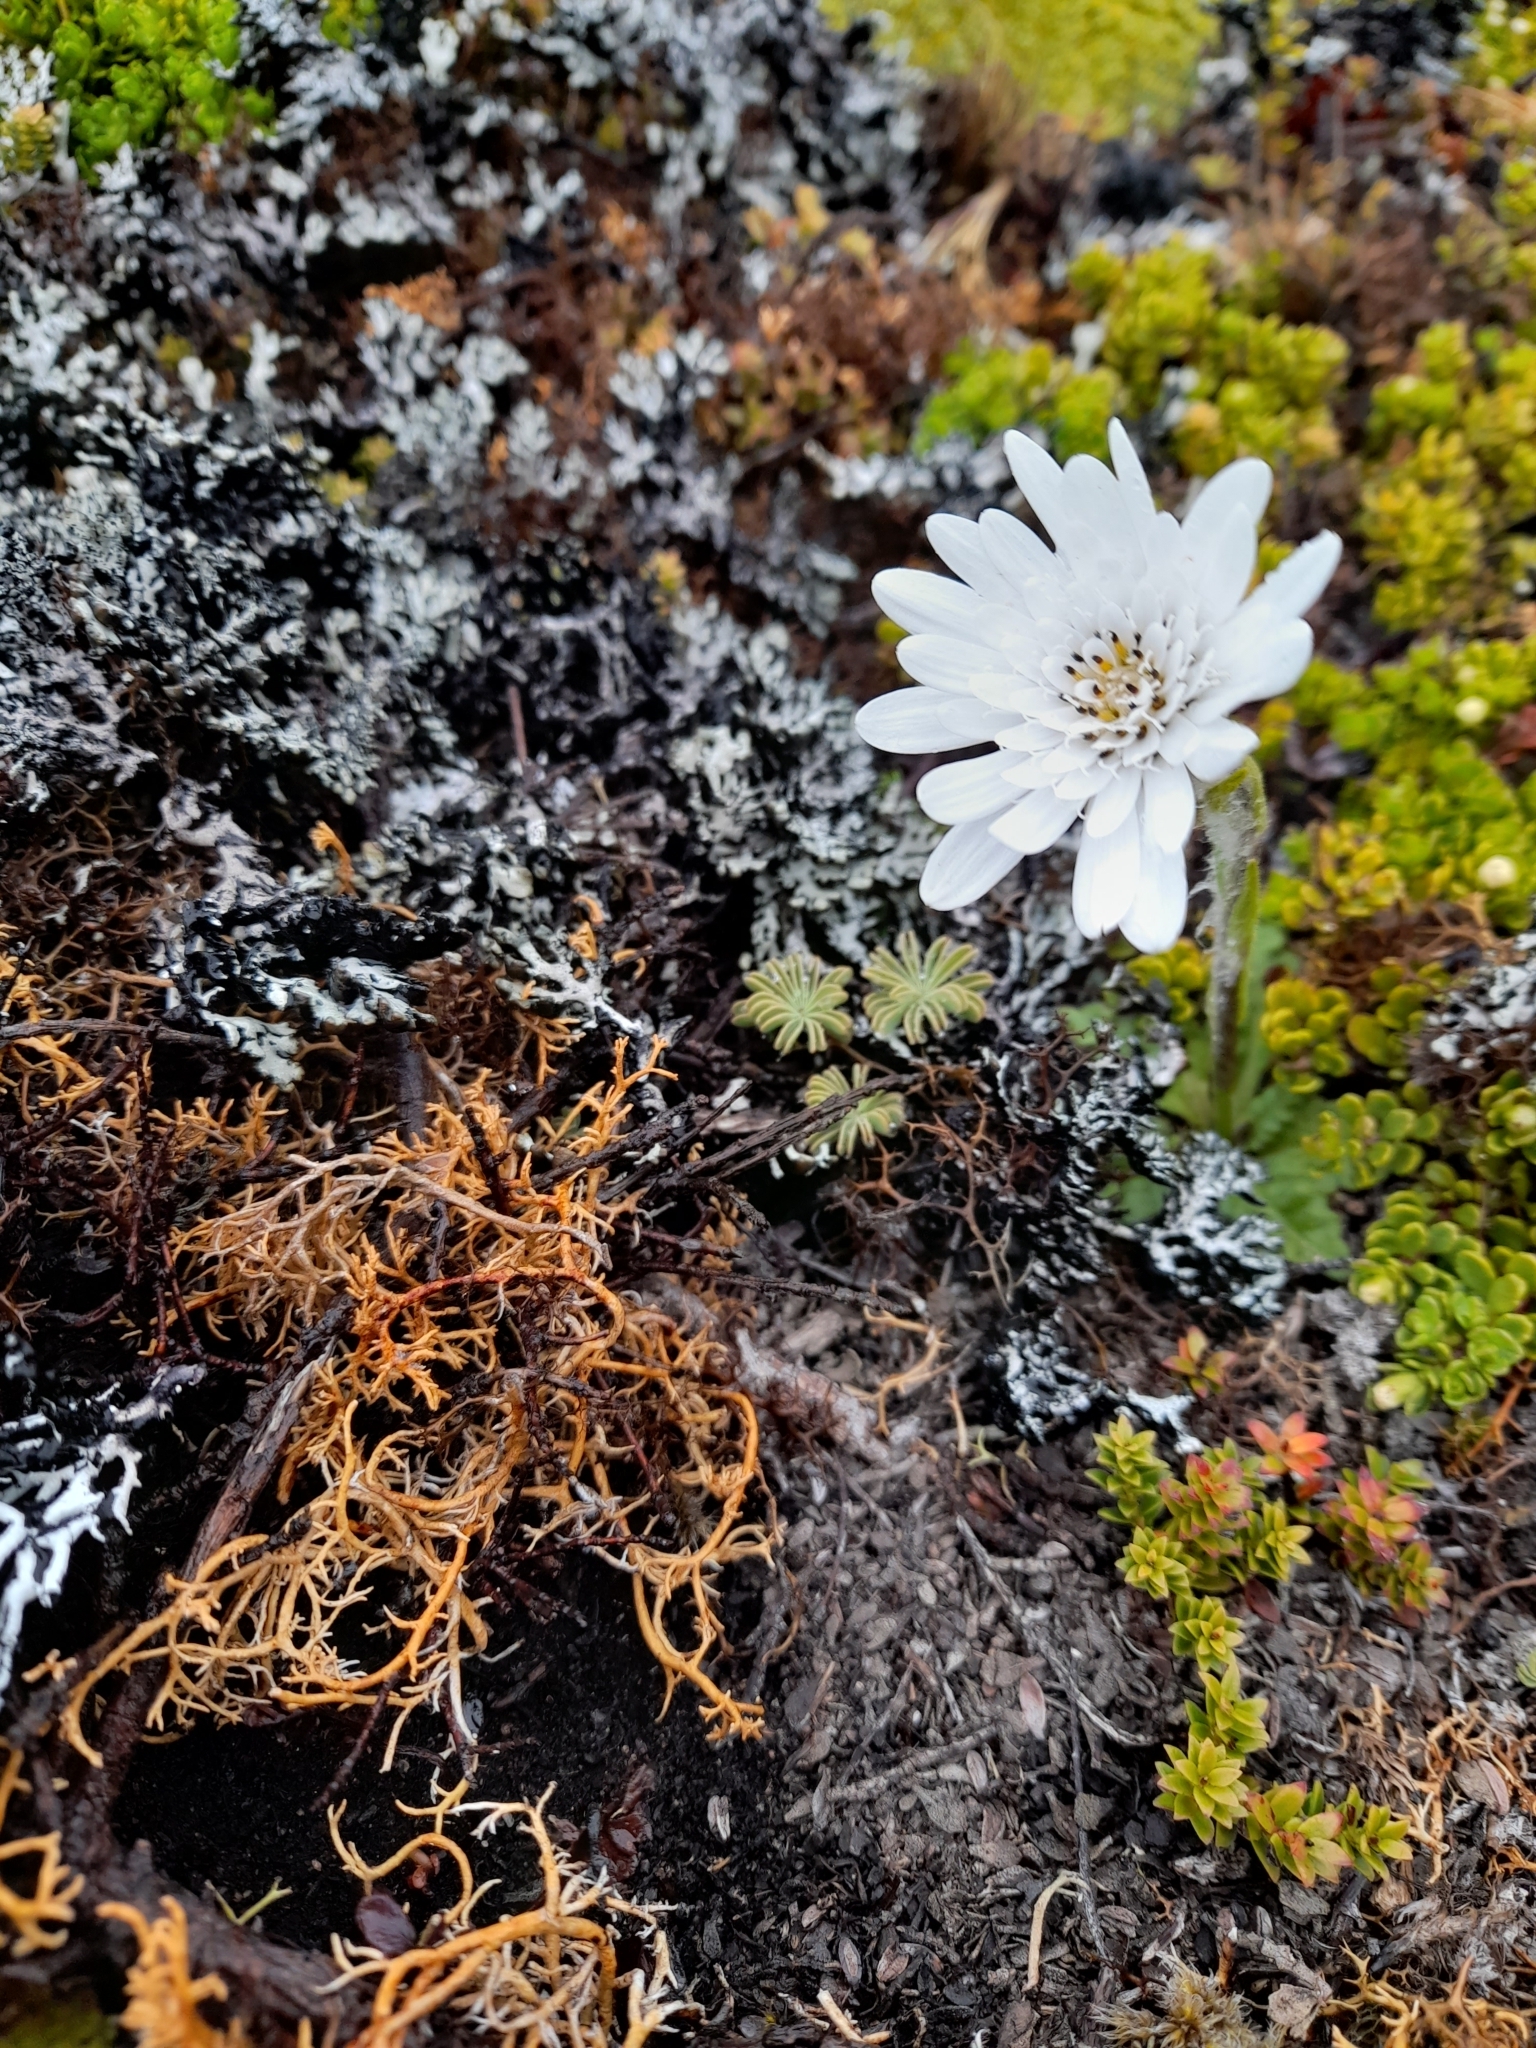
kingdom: Plantae
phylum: Tracheophyta
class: Magnoliopsida
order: Asterales
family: Asteraceae
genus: Leucheria
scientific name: Leucheria suaveolens
